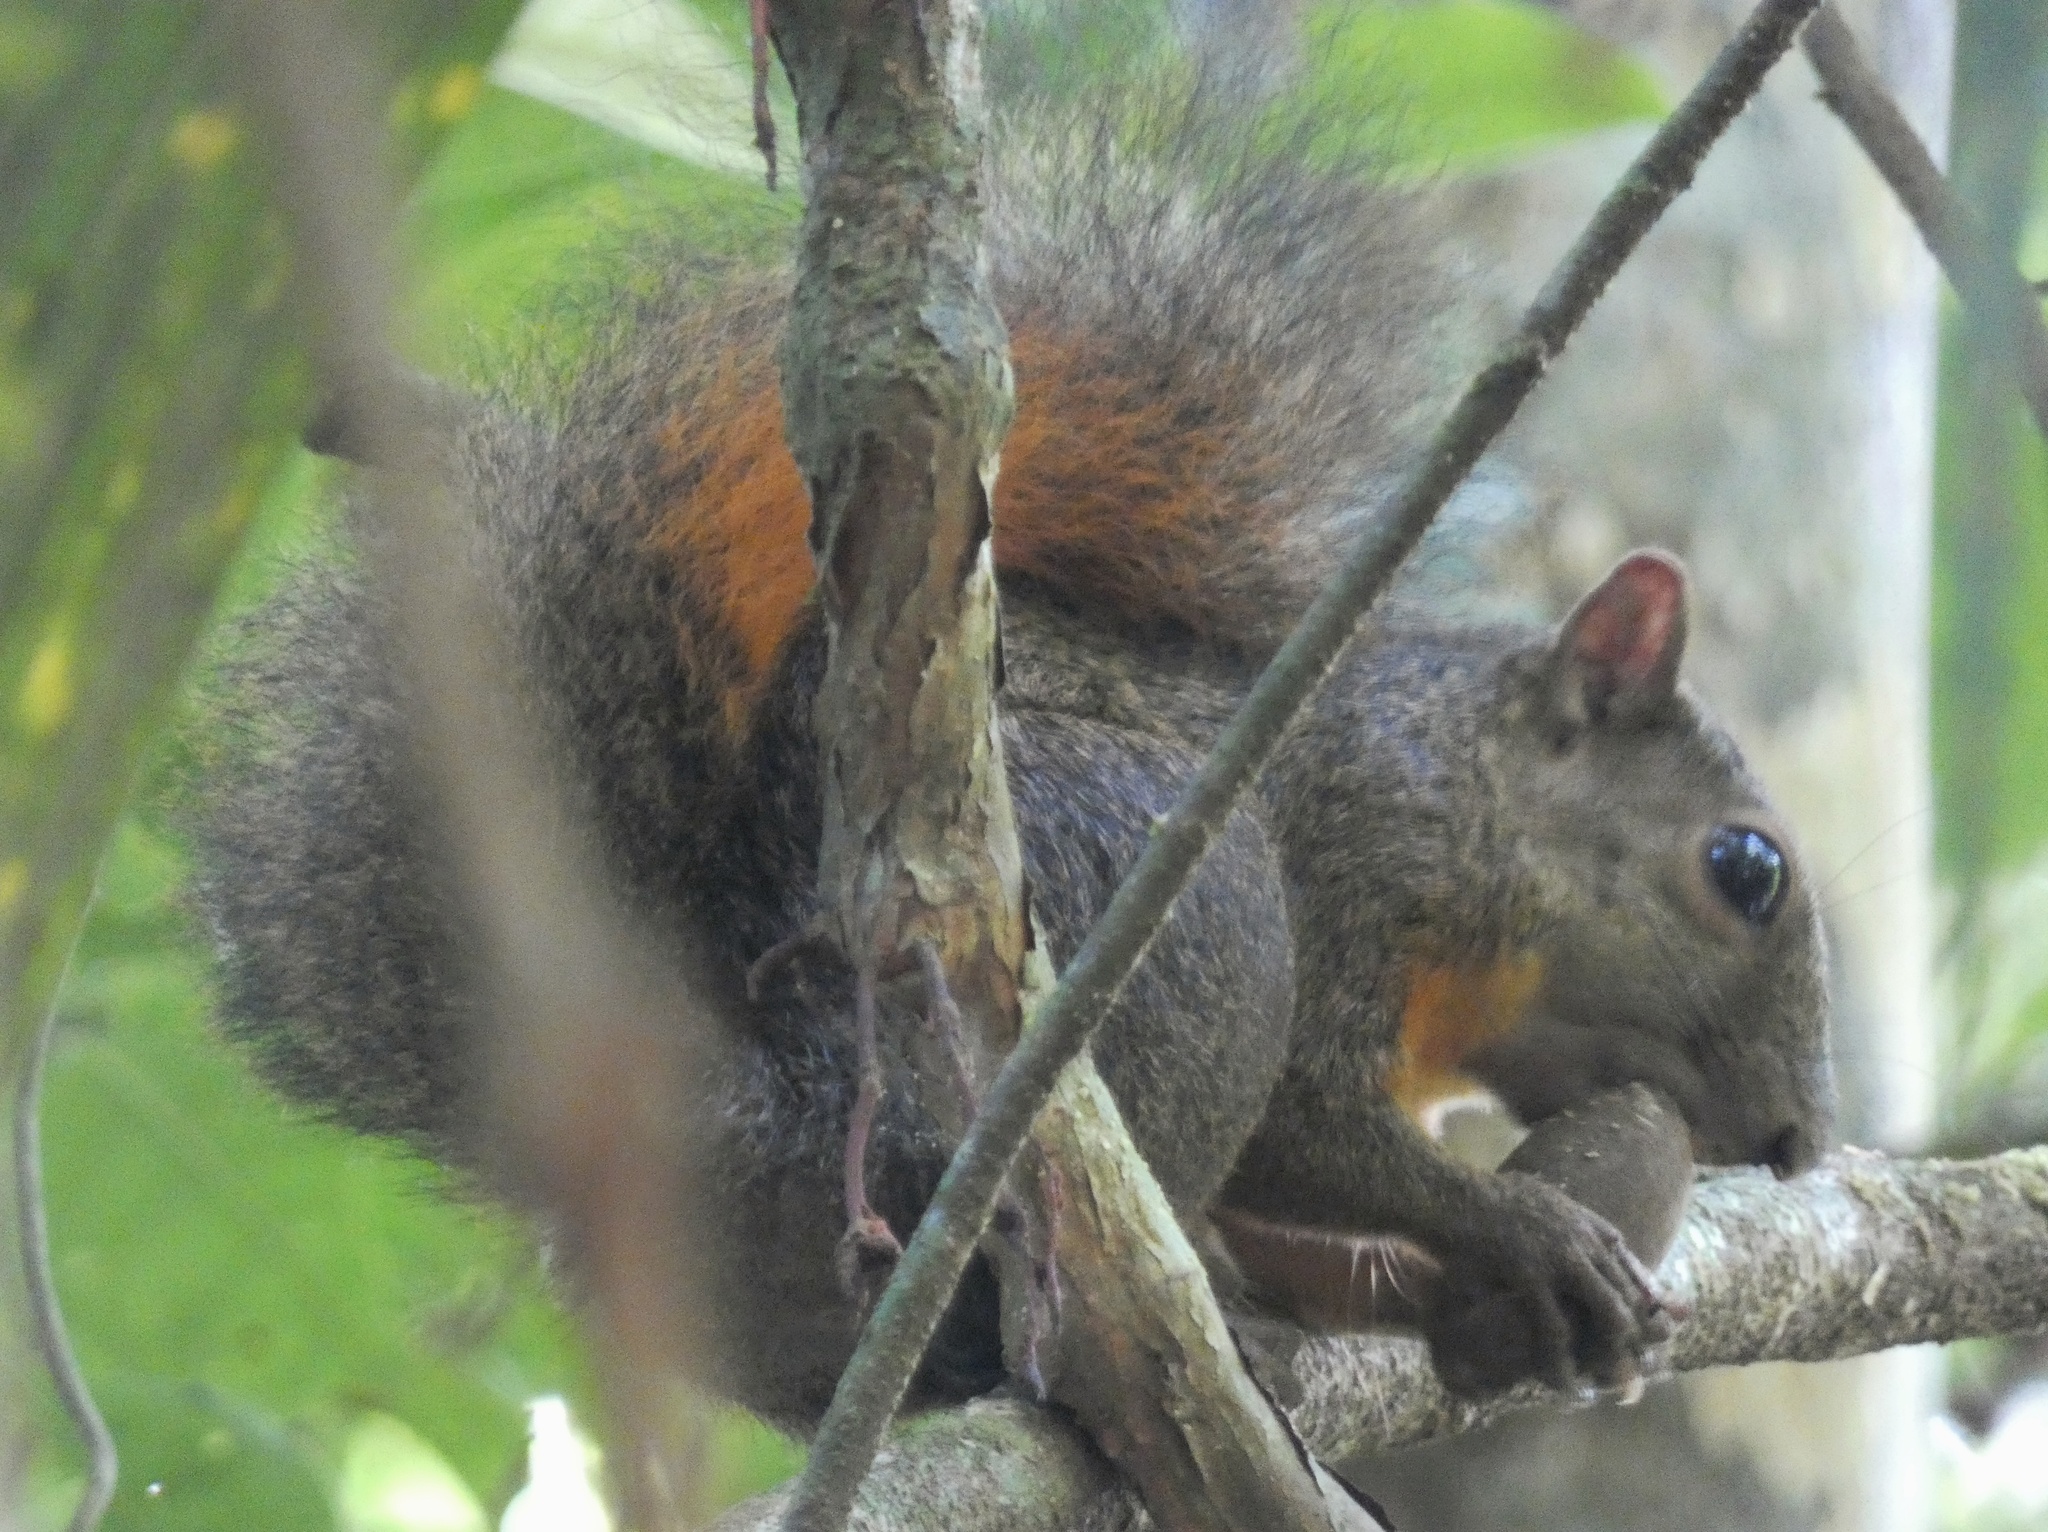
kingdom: Animalia
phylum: Chordata
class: Mammalia
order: Rodentia
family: Sciuridae
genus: Sciurus
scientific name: Sciurus granatensis
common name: Red-tailed squirrel
